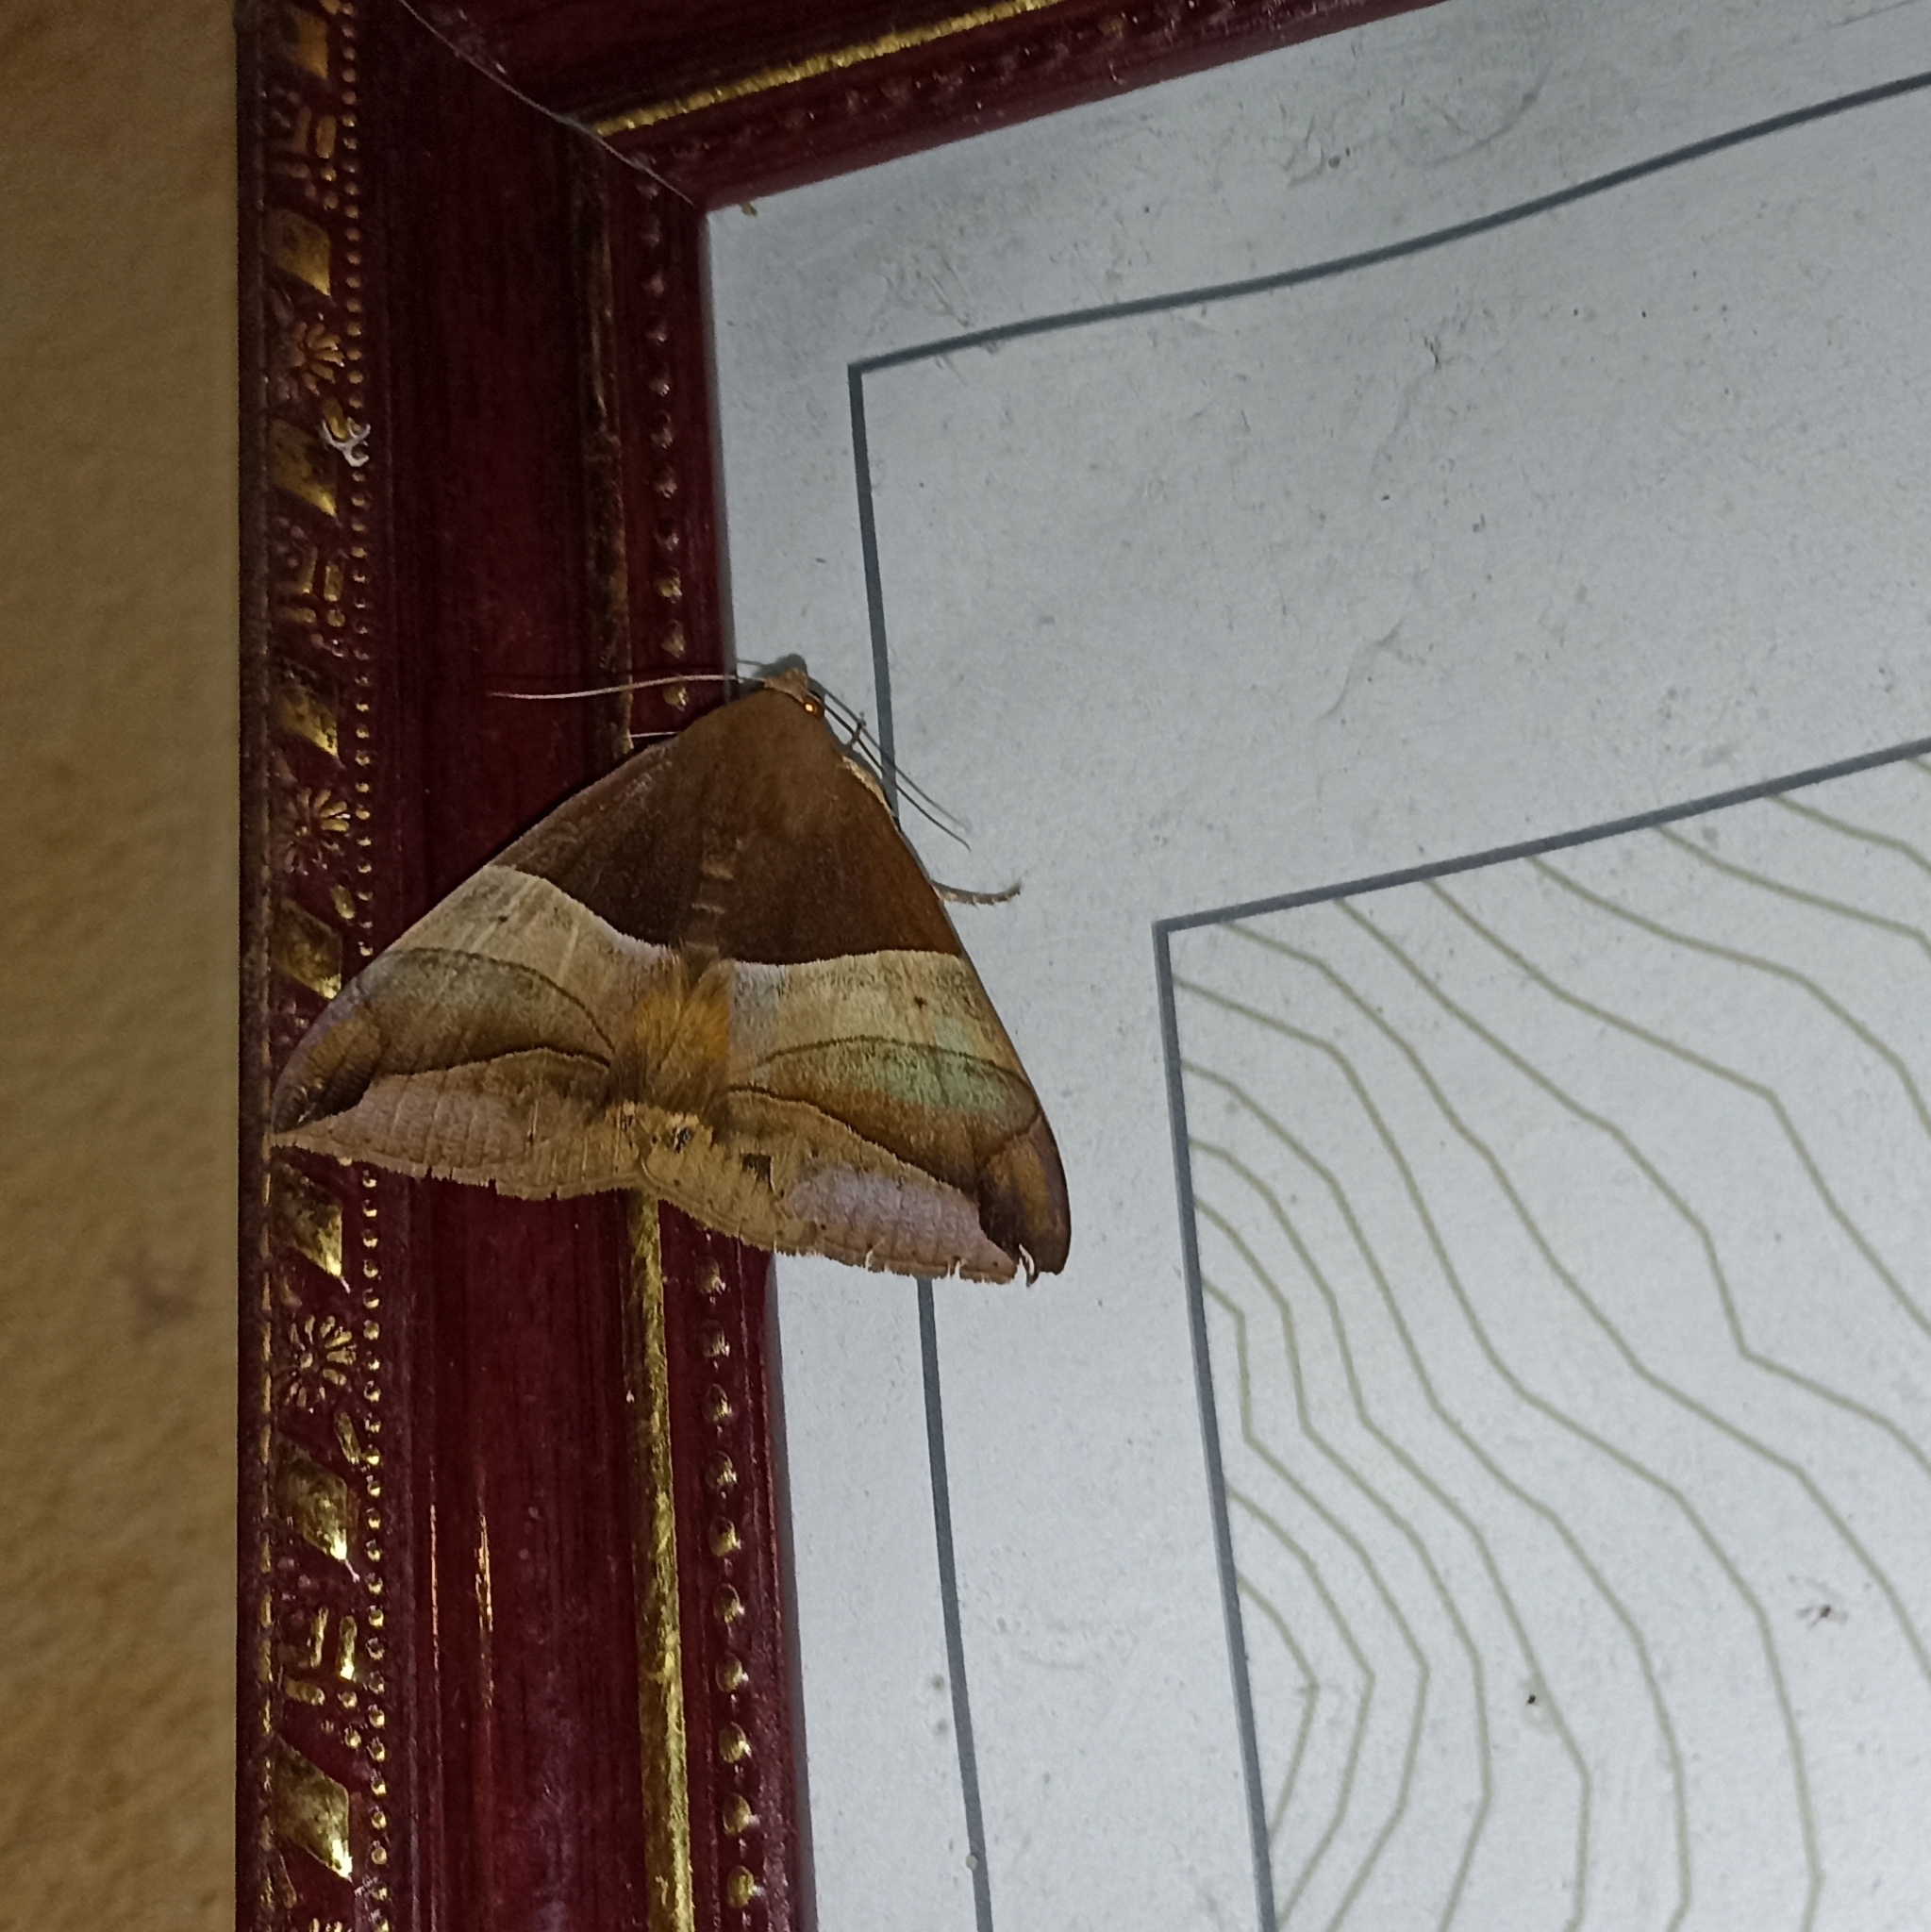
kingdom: Animalia
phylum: Arthropoda
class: Insecta
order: Lepidoptera
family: Erebidae
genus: Bastilla
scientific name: Bastilla fulvotaenia
